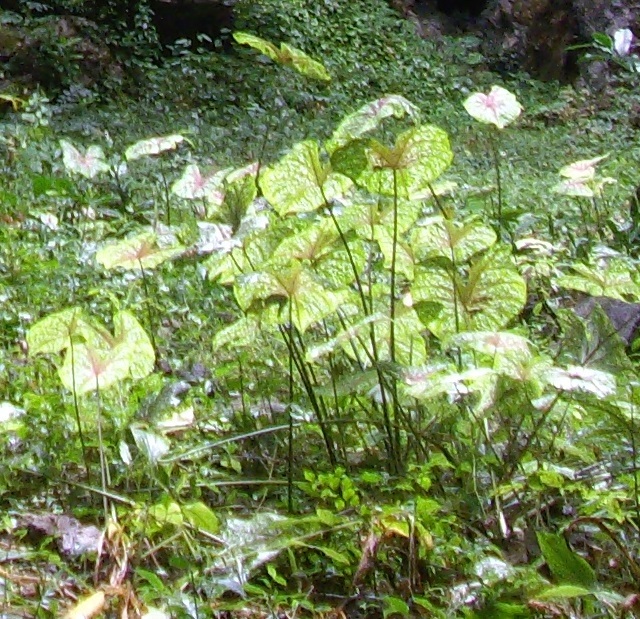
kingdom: Plantae
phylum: Tracheophyta
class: Liliopsida
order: Alismatales
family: Araceae
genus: Caladium
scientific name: Caladium bicolor
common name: Artist's pallet
